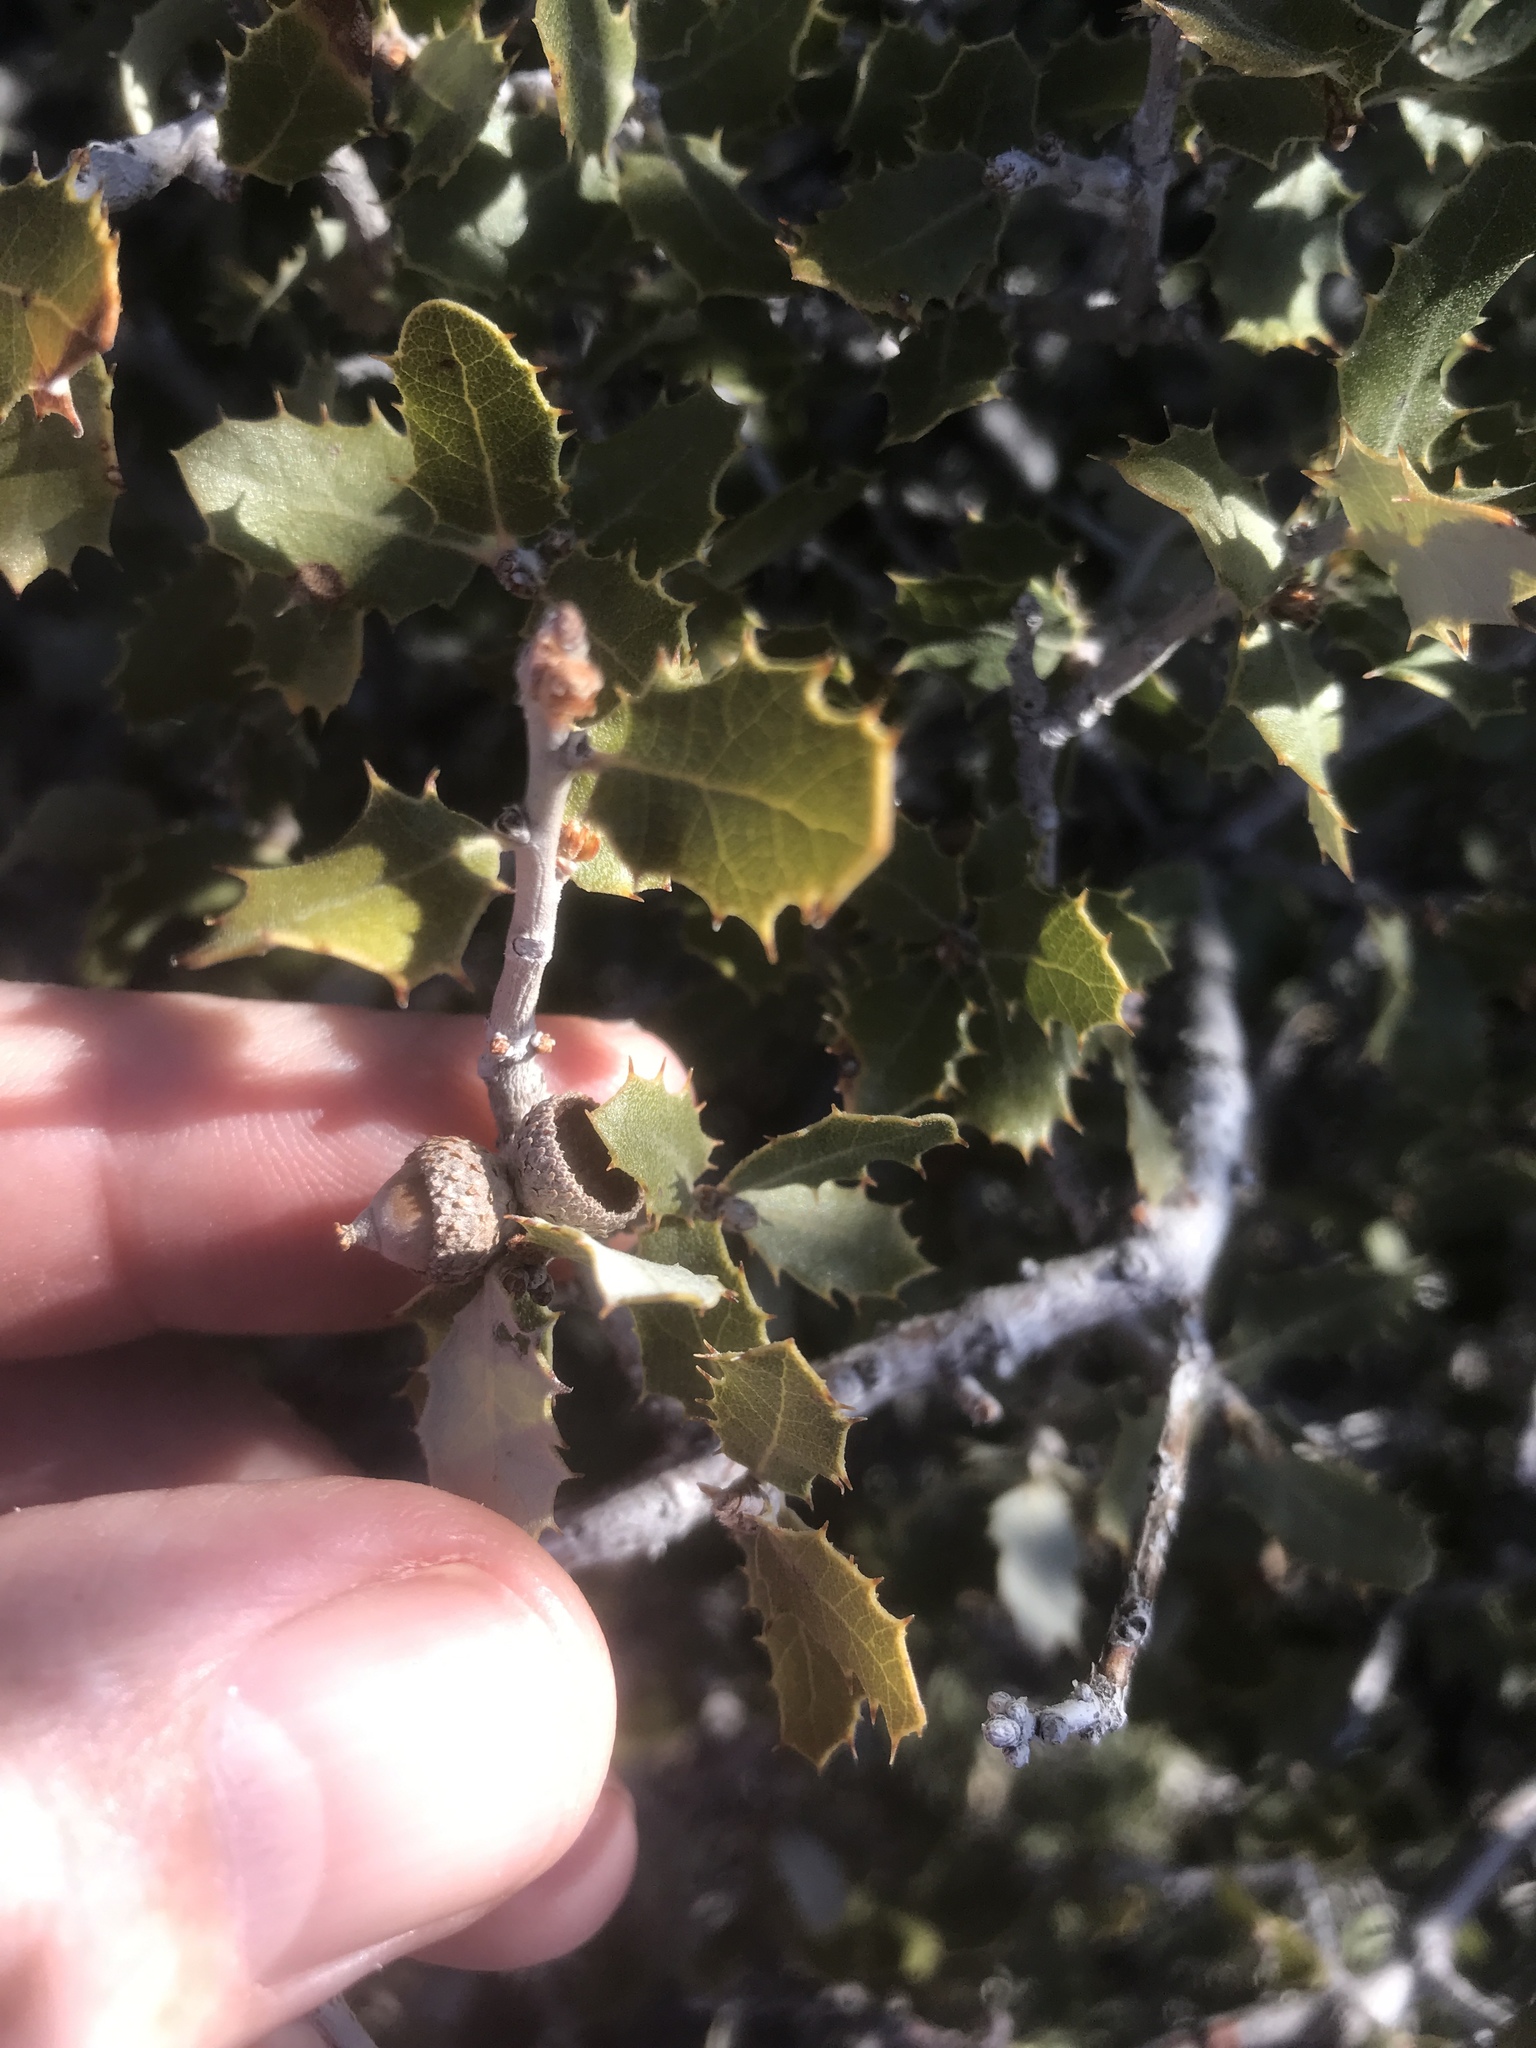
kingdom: Plantae
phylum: Tracheophyta
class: Magnoliopsida
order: Fagales
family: Fagaceae
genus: Quercus
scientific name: Quercus cornelius-mulleri
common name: Muller oak
